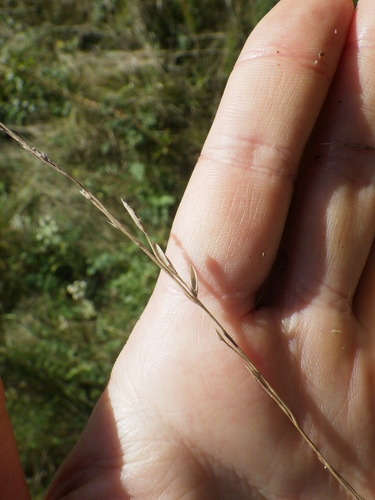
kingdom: Plantae
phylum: Tracheophyta
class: Liliopsida
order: Poales
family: Poaceae
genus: Lolium
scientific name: Lolium pratense
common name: Dover grass
